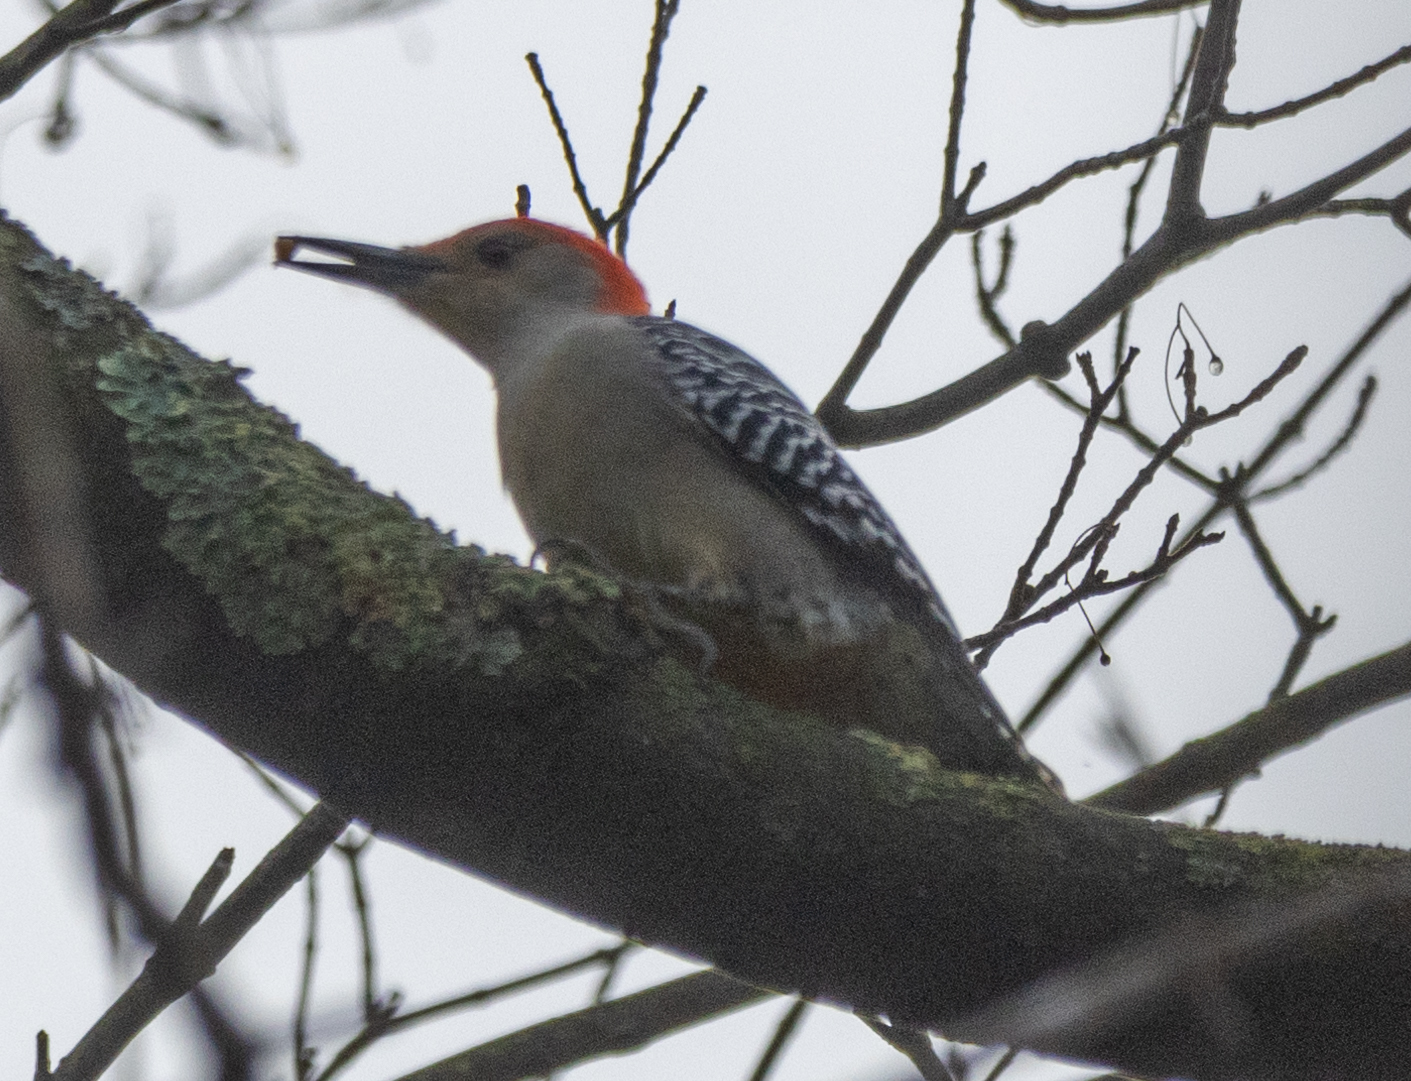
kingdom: Animalia
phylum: Chordata
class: Aves
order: Piciformes
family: Picidae
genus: Melanerpes
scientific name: Melanerpes carolinus
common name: Red-bellied woodpecker
